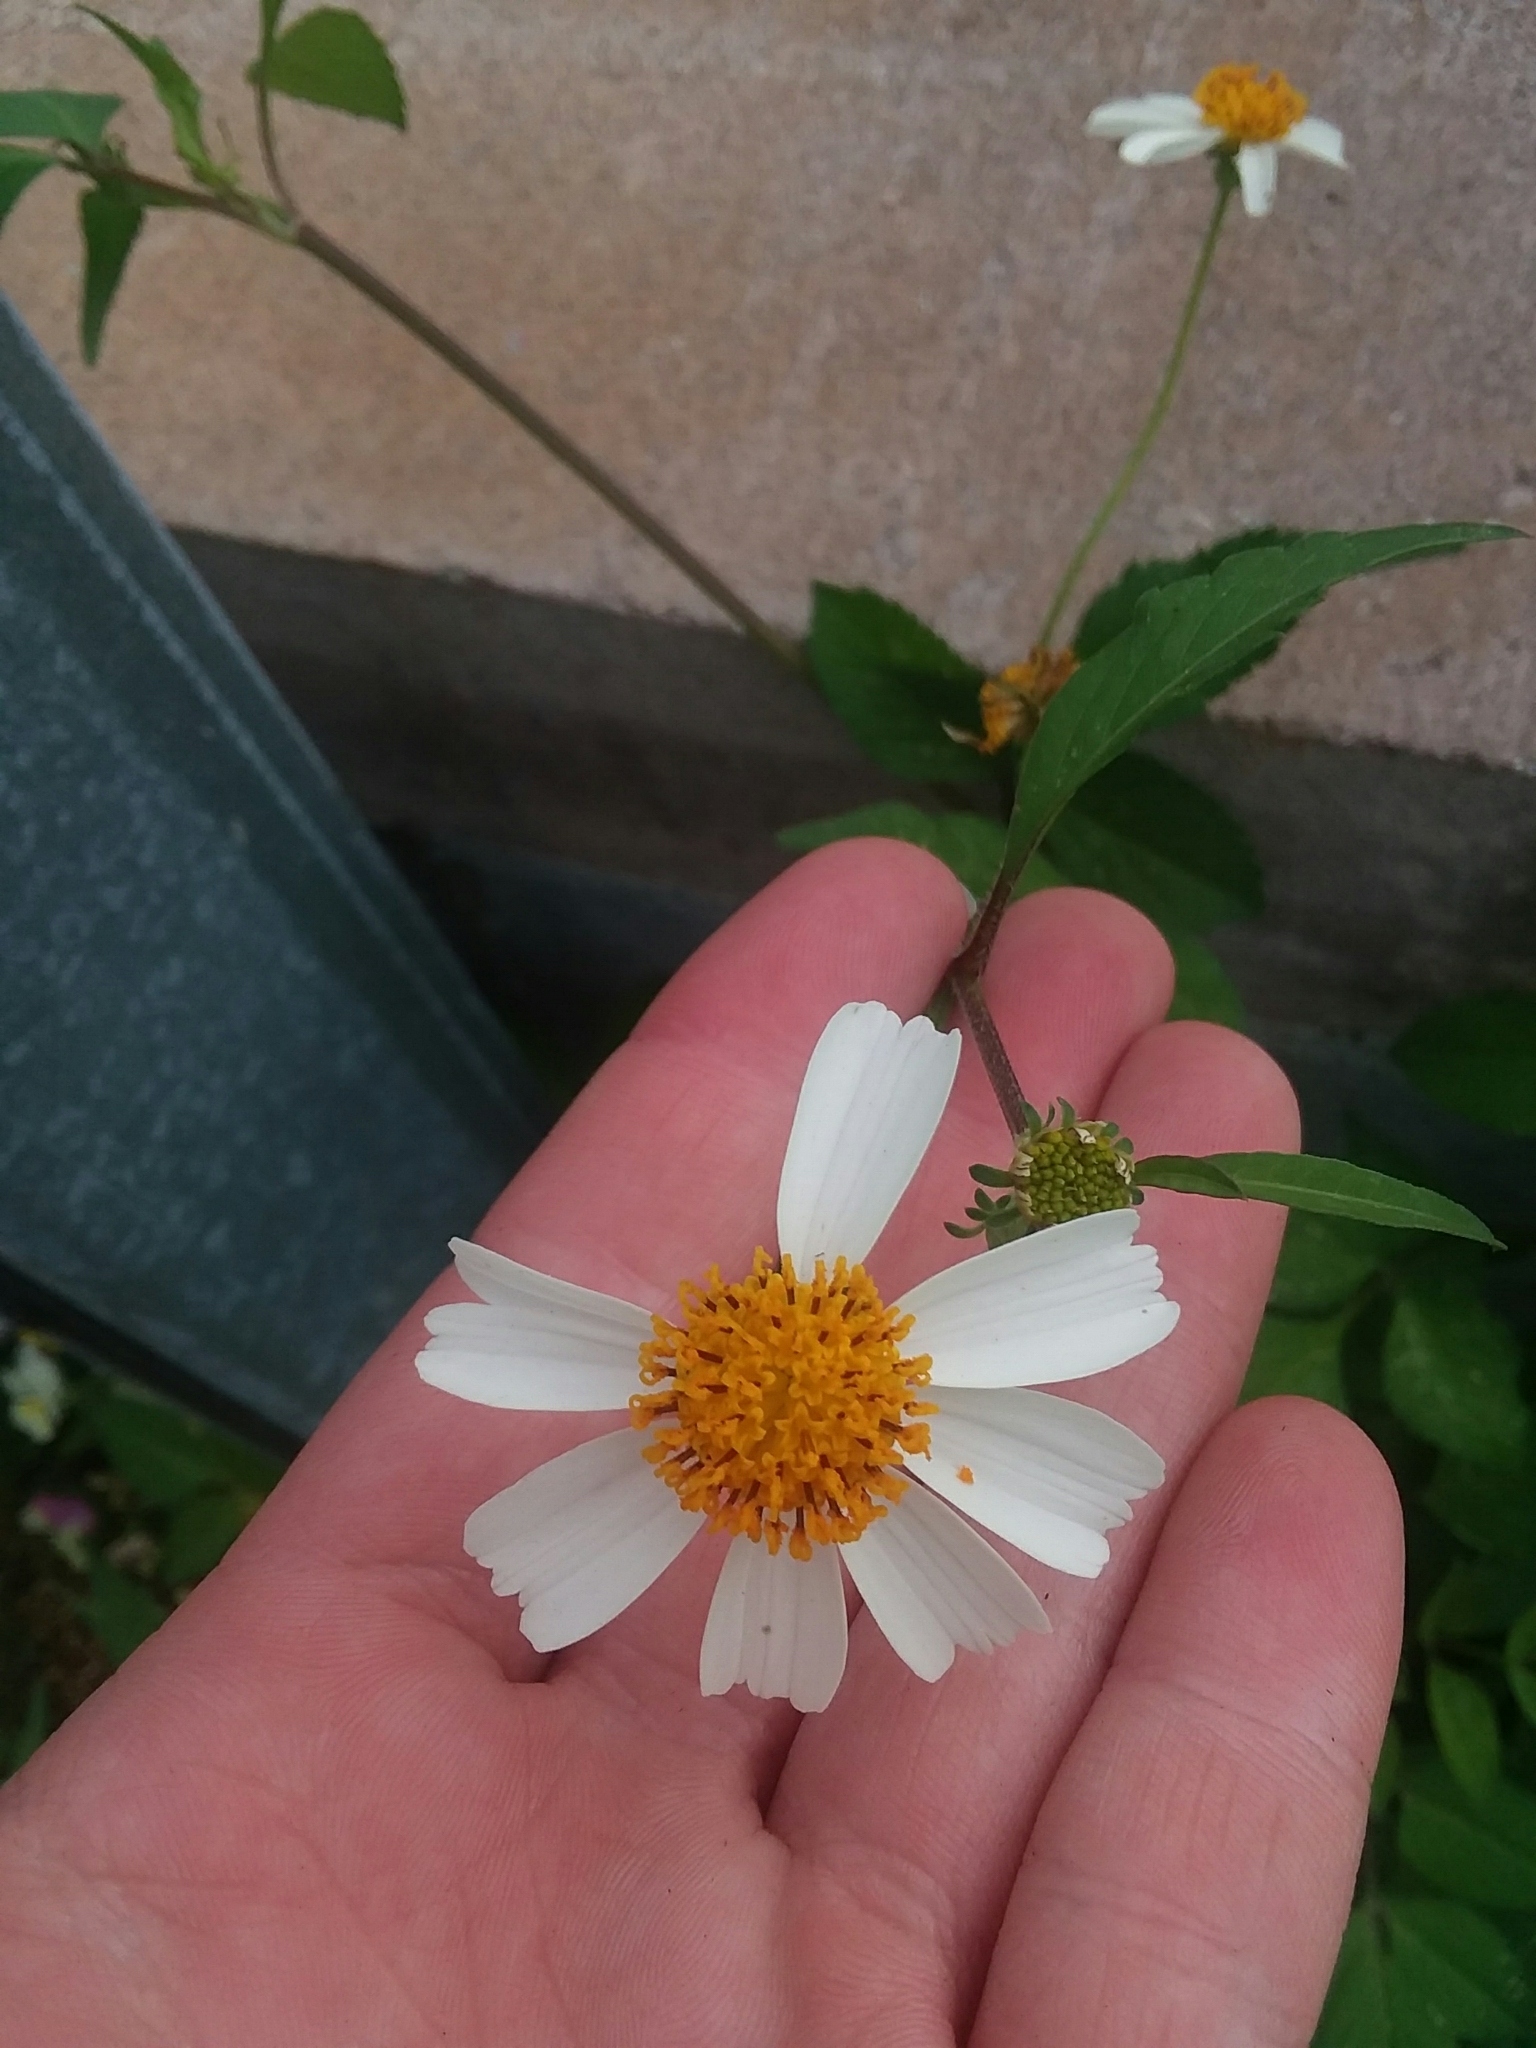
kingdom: Plantae
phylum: Tracheophyta
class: Magnoliopsida
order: Asterales
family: Asteraceae
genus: Bidens
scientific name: Bidens alba
